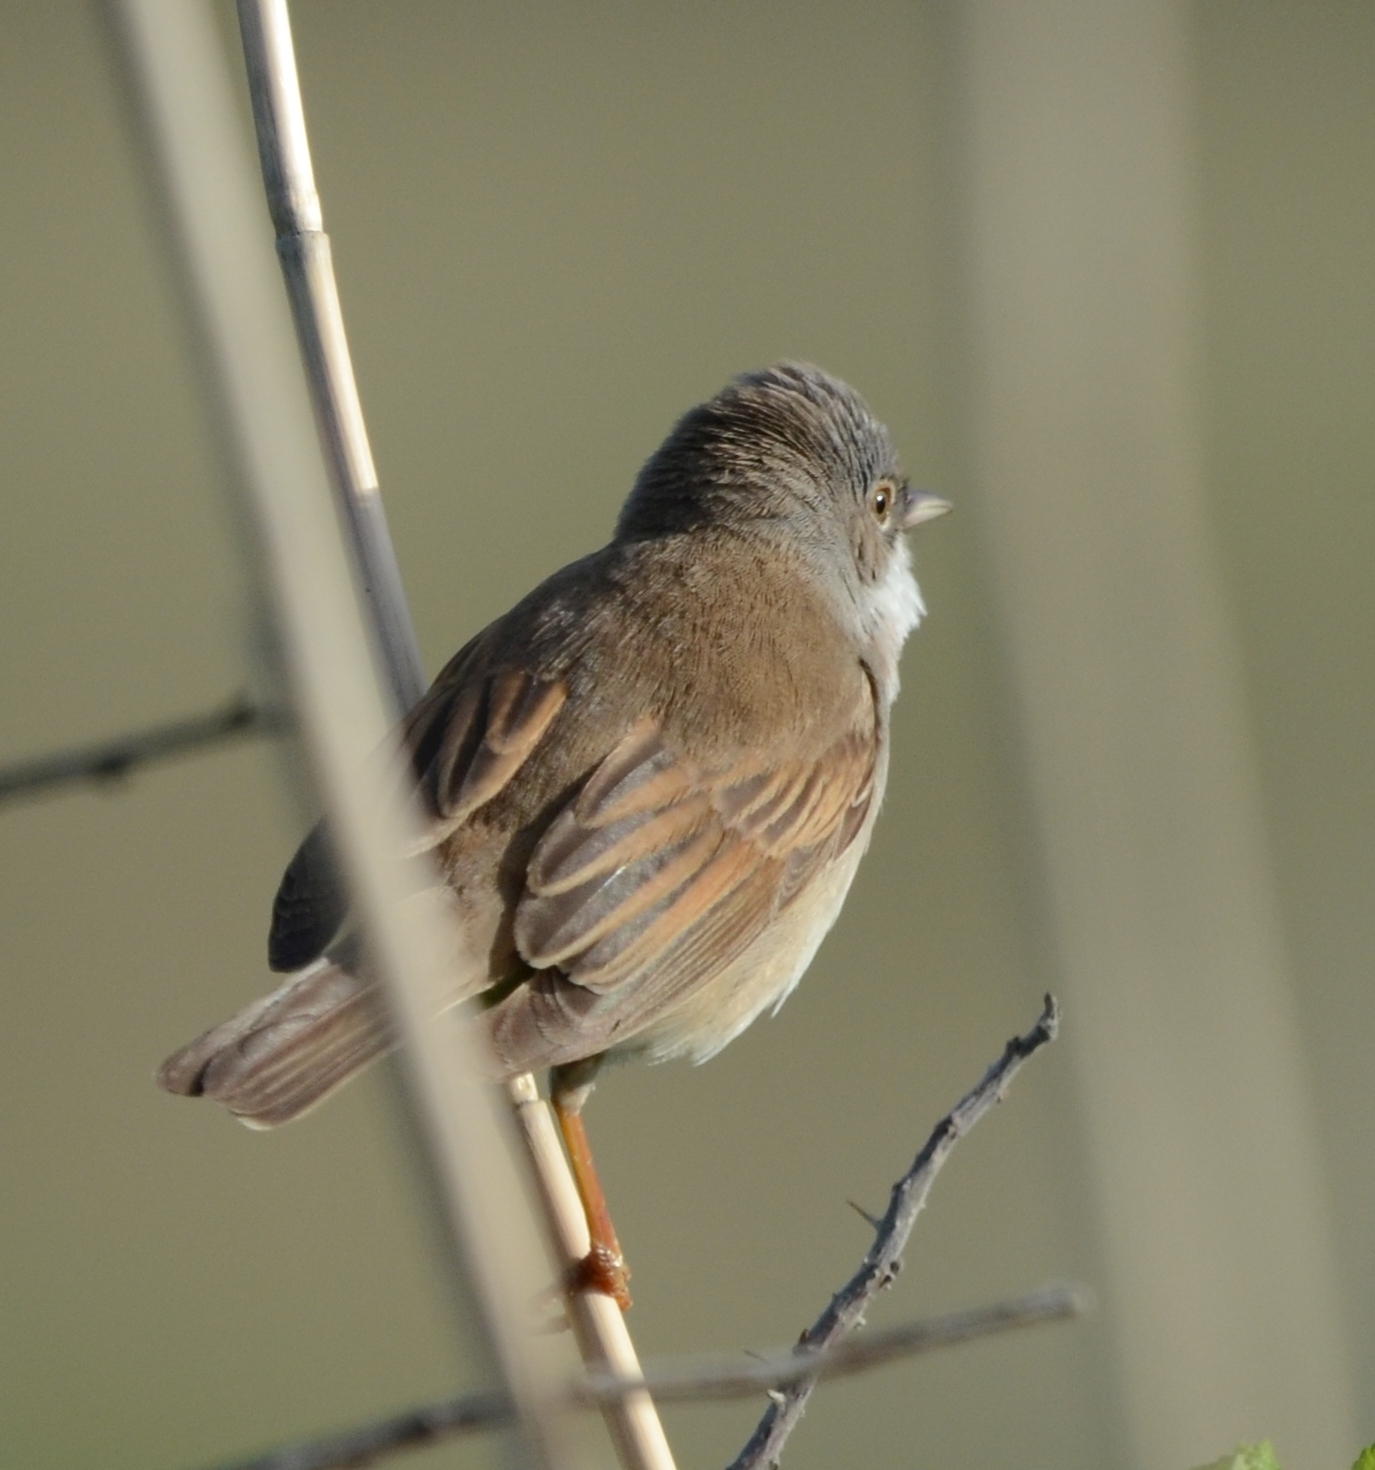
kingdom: Animalia
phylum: Chordata
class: Aves
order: Passeriformes
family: Sylviidae
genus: Sylvia
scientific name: Sylvia communis
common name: Common whitethroat
